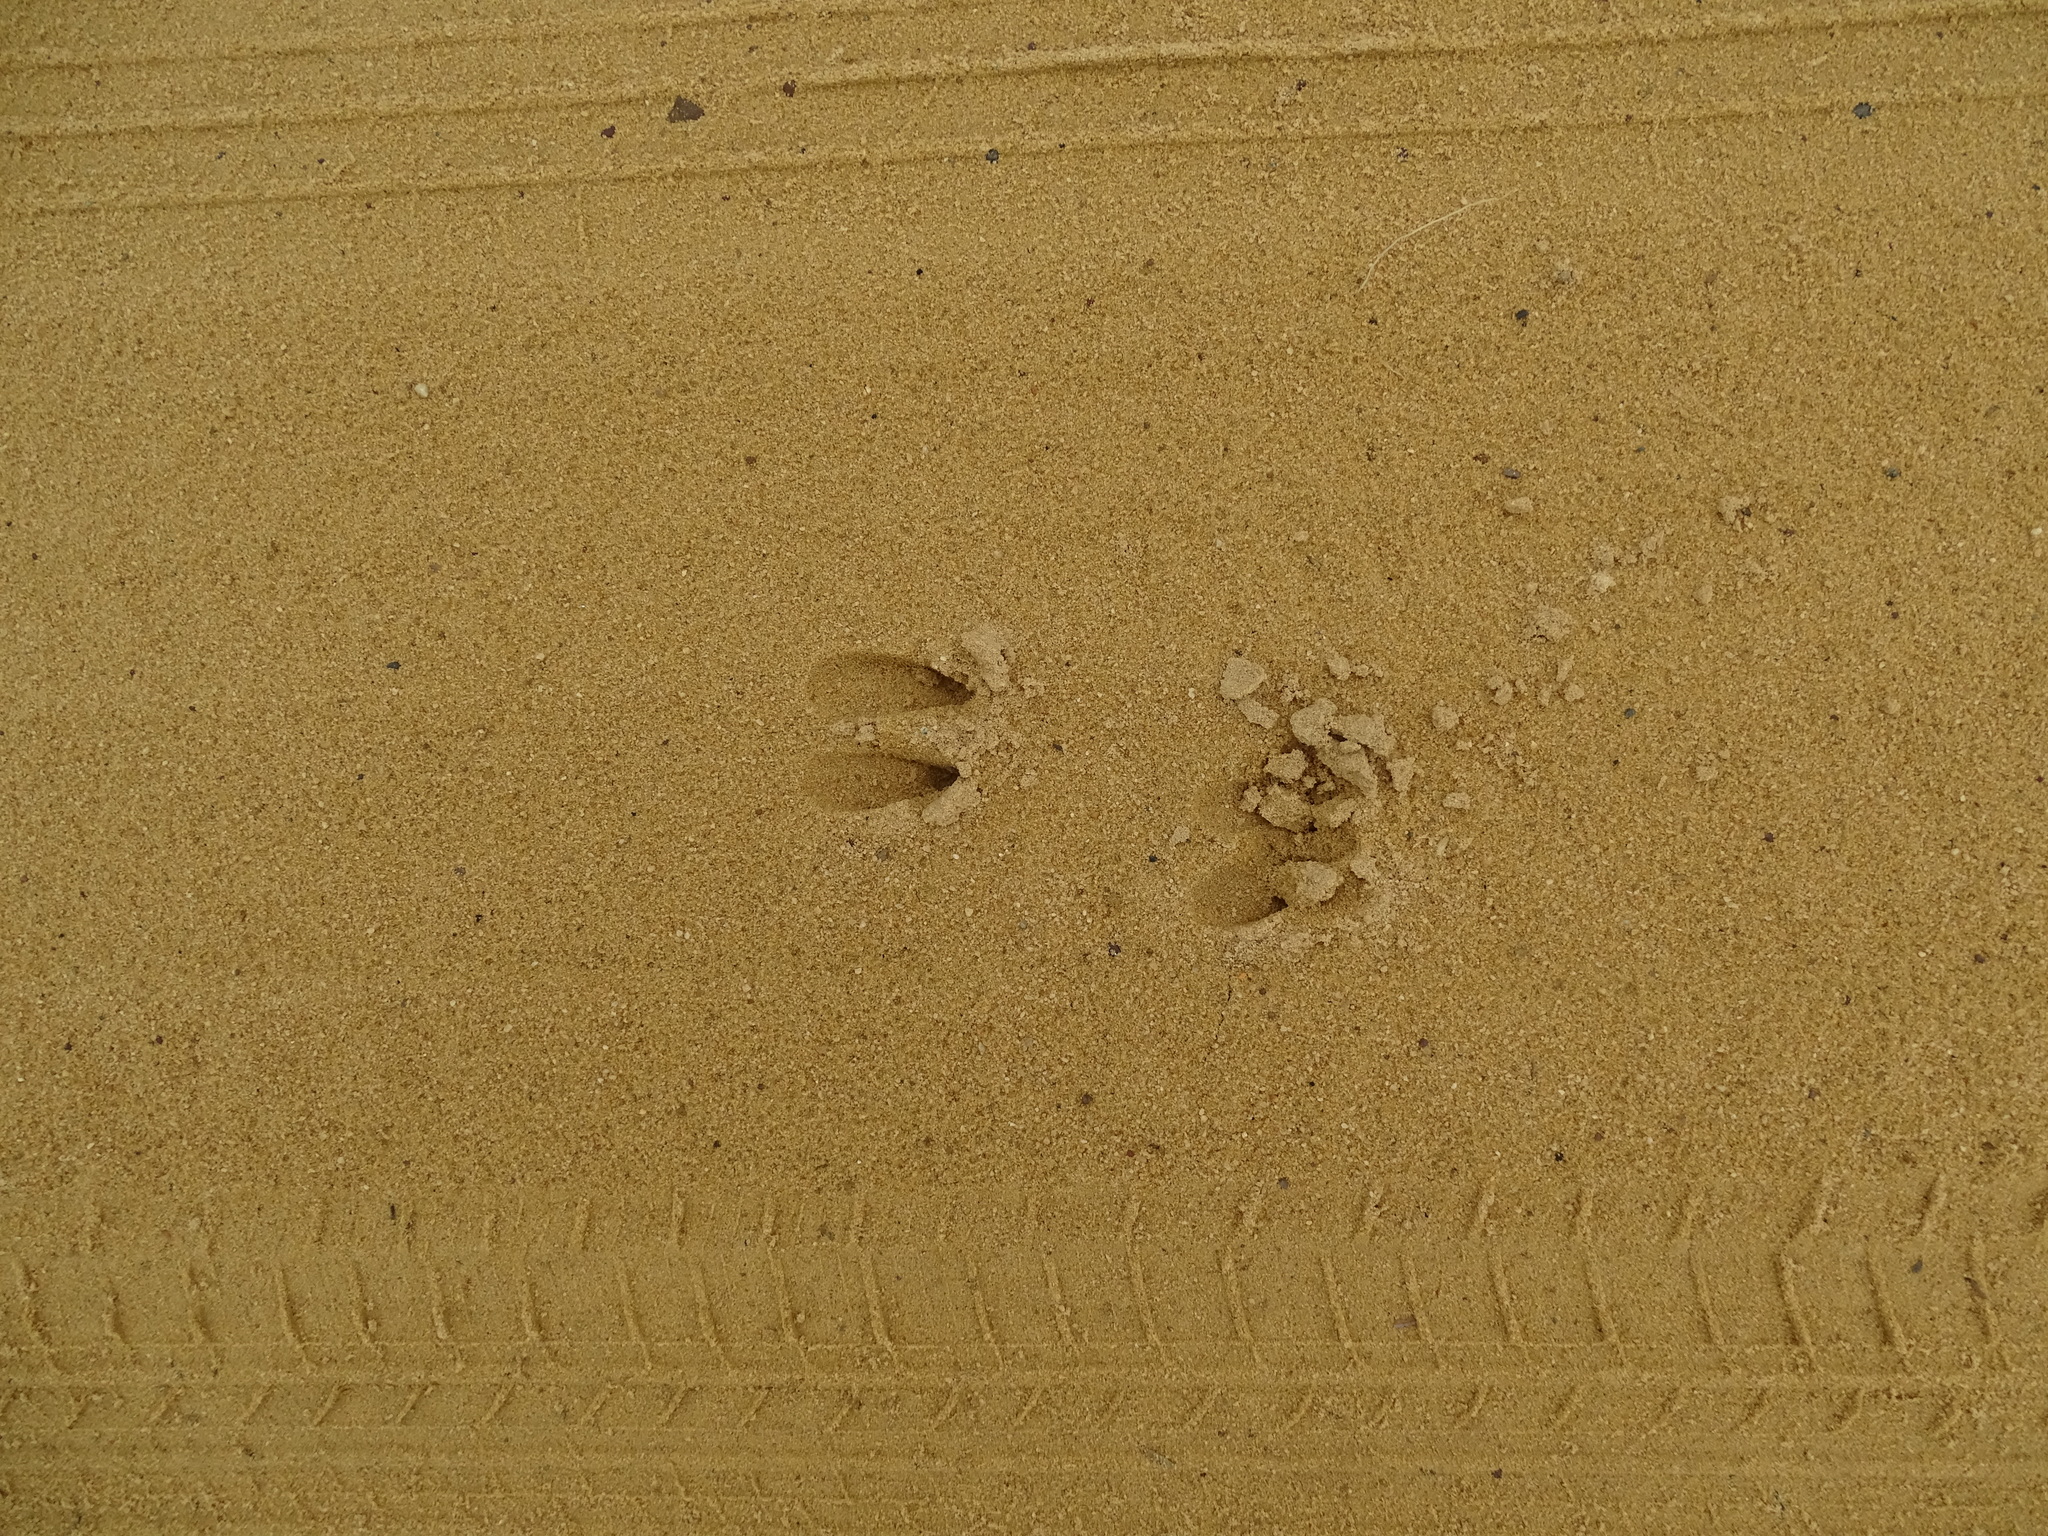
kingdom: Animalia
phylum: Chordata
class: Mammalia
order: Artiodactyla
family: Cervidae
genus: Odocoileus
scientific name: Odocoileus virginianus
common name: White-tailed deer
